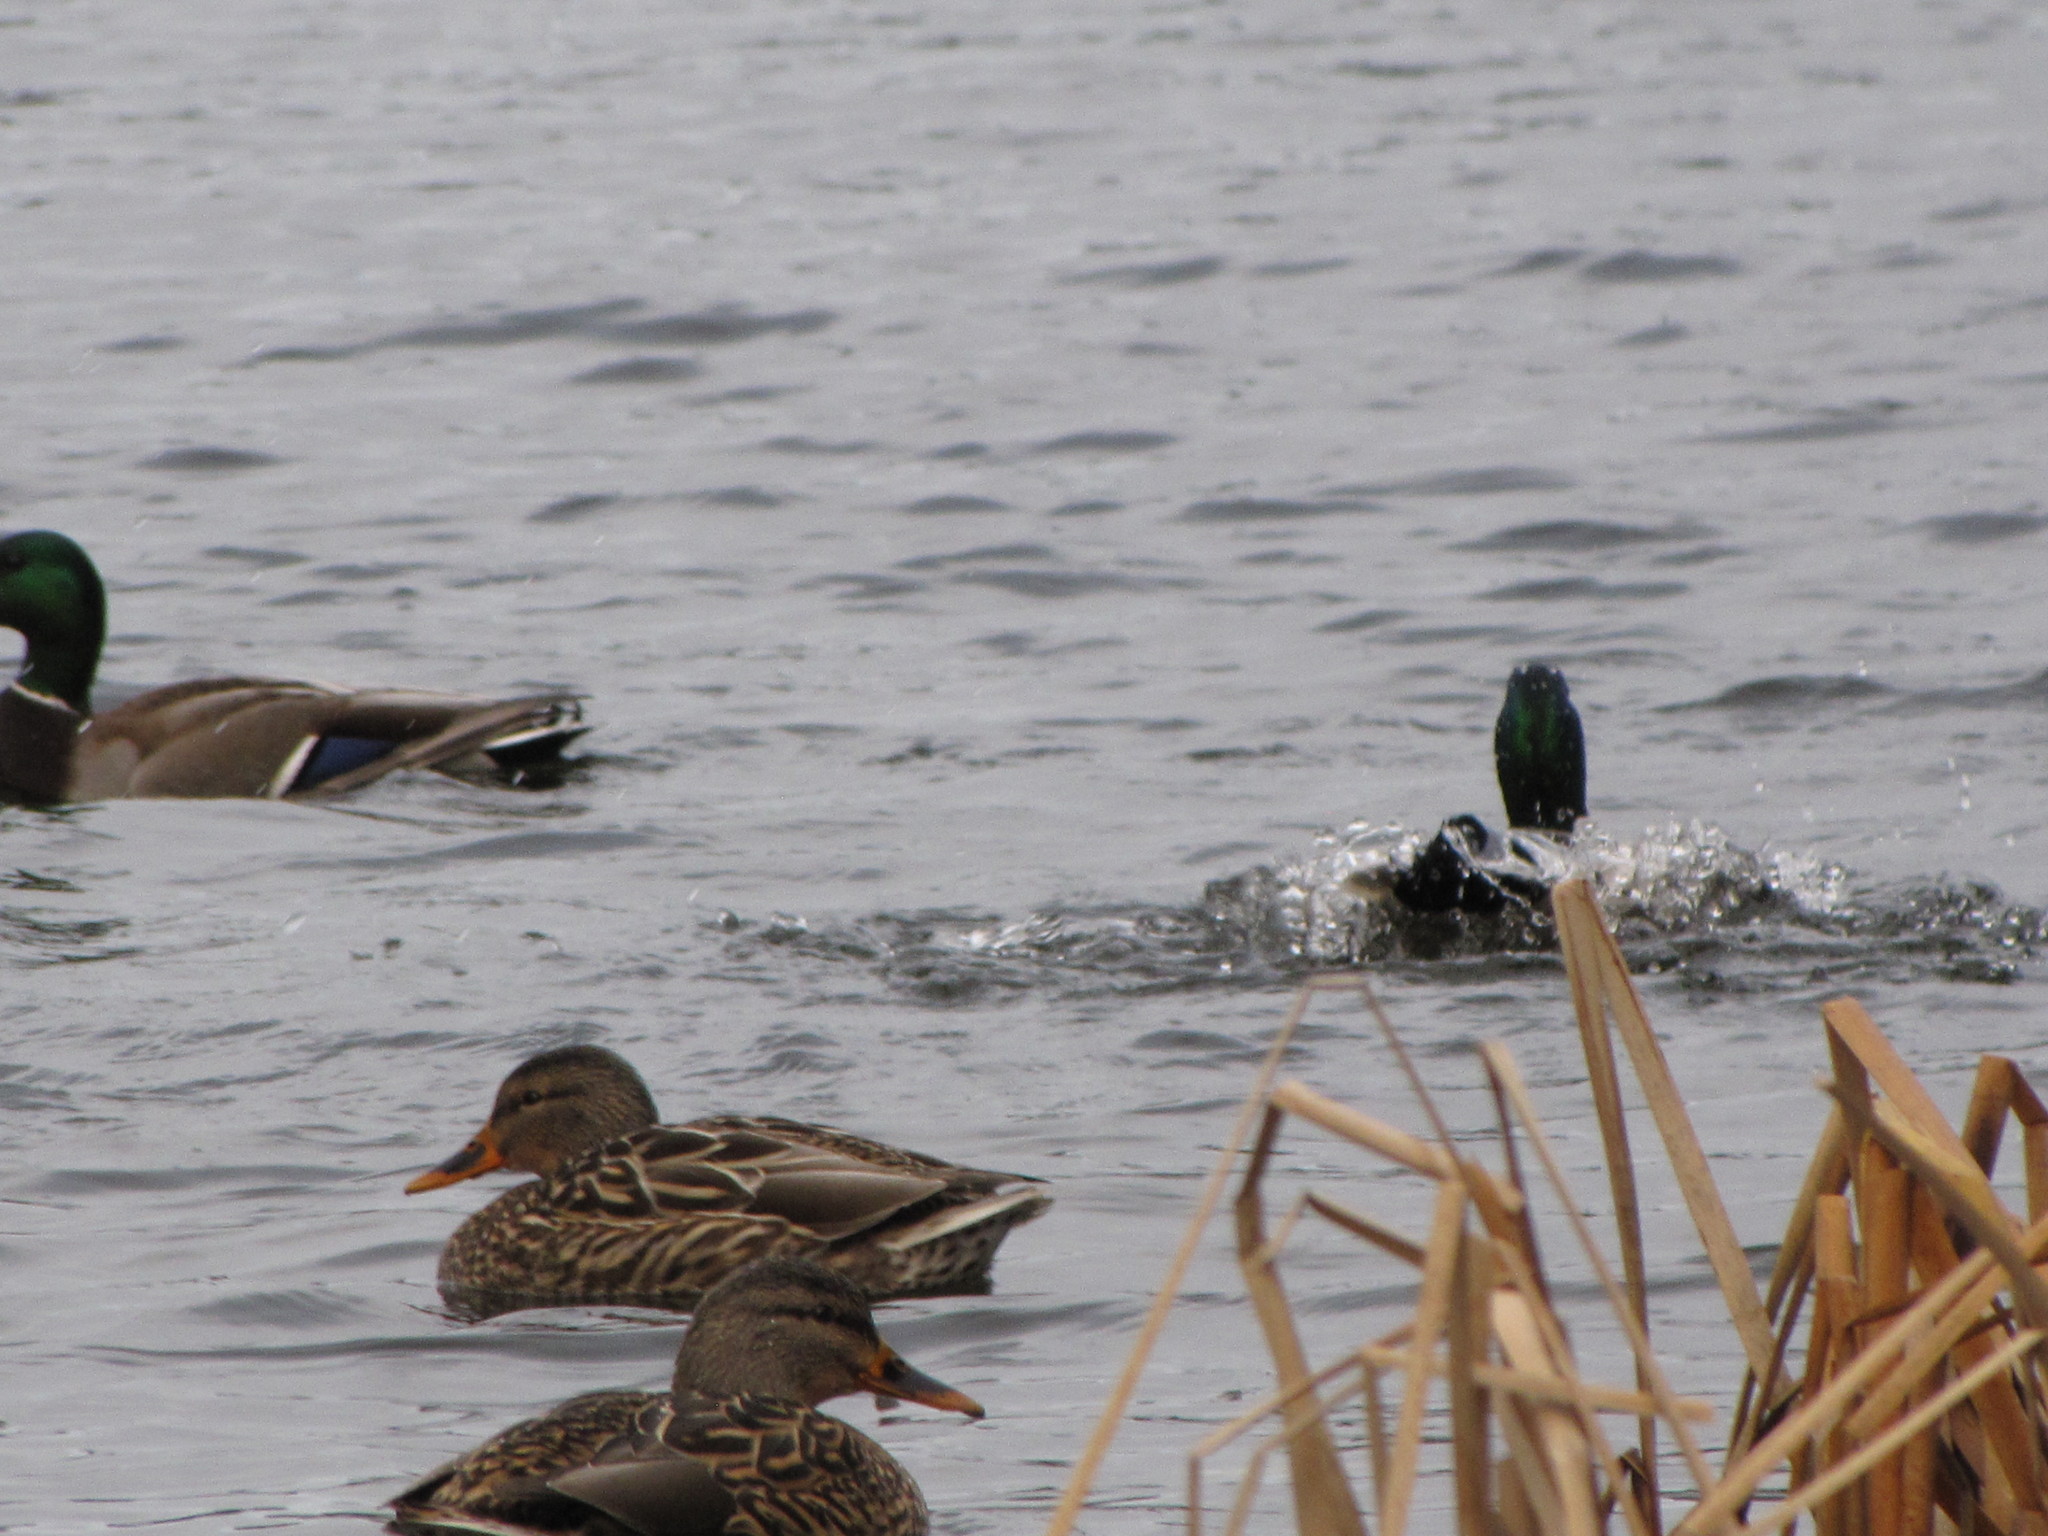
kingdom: Animalia
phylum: Chordata
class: Aves
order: Anseriformes
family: Anatidae
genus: Anas
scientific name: Anas platyrhynchos
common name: Mallard
